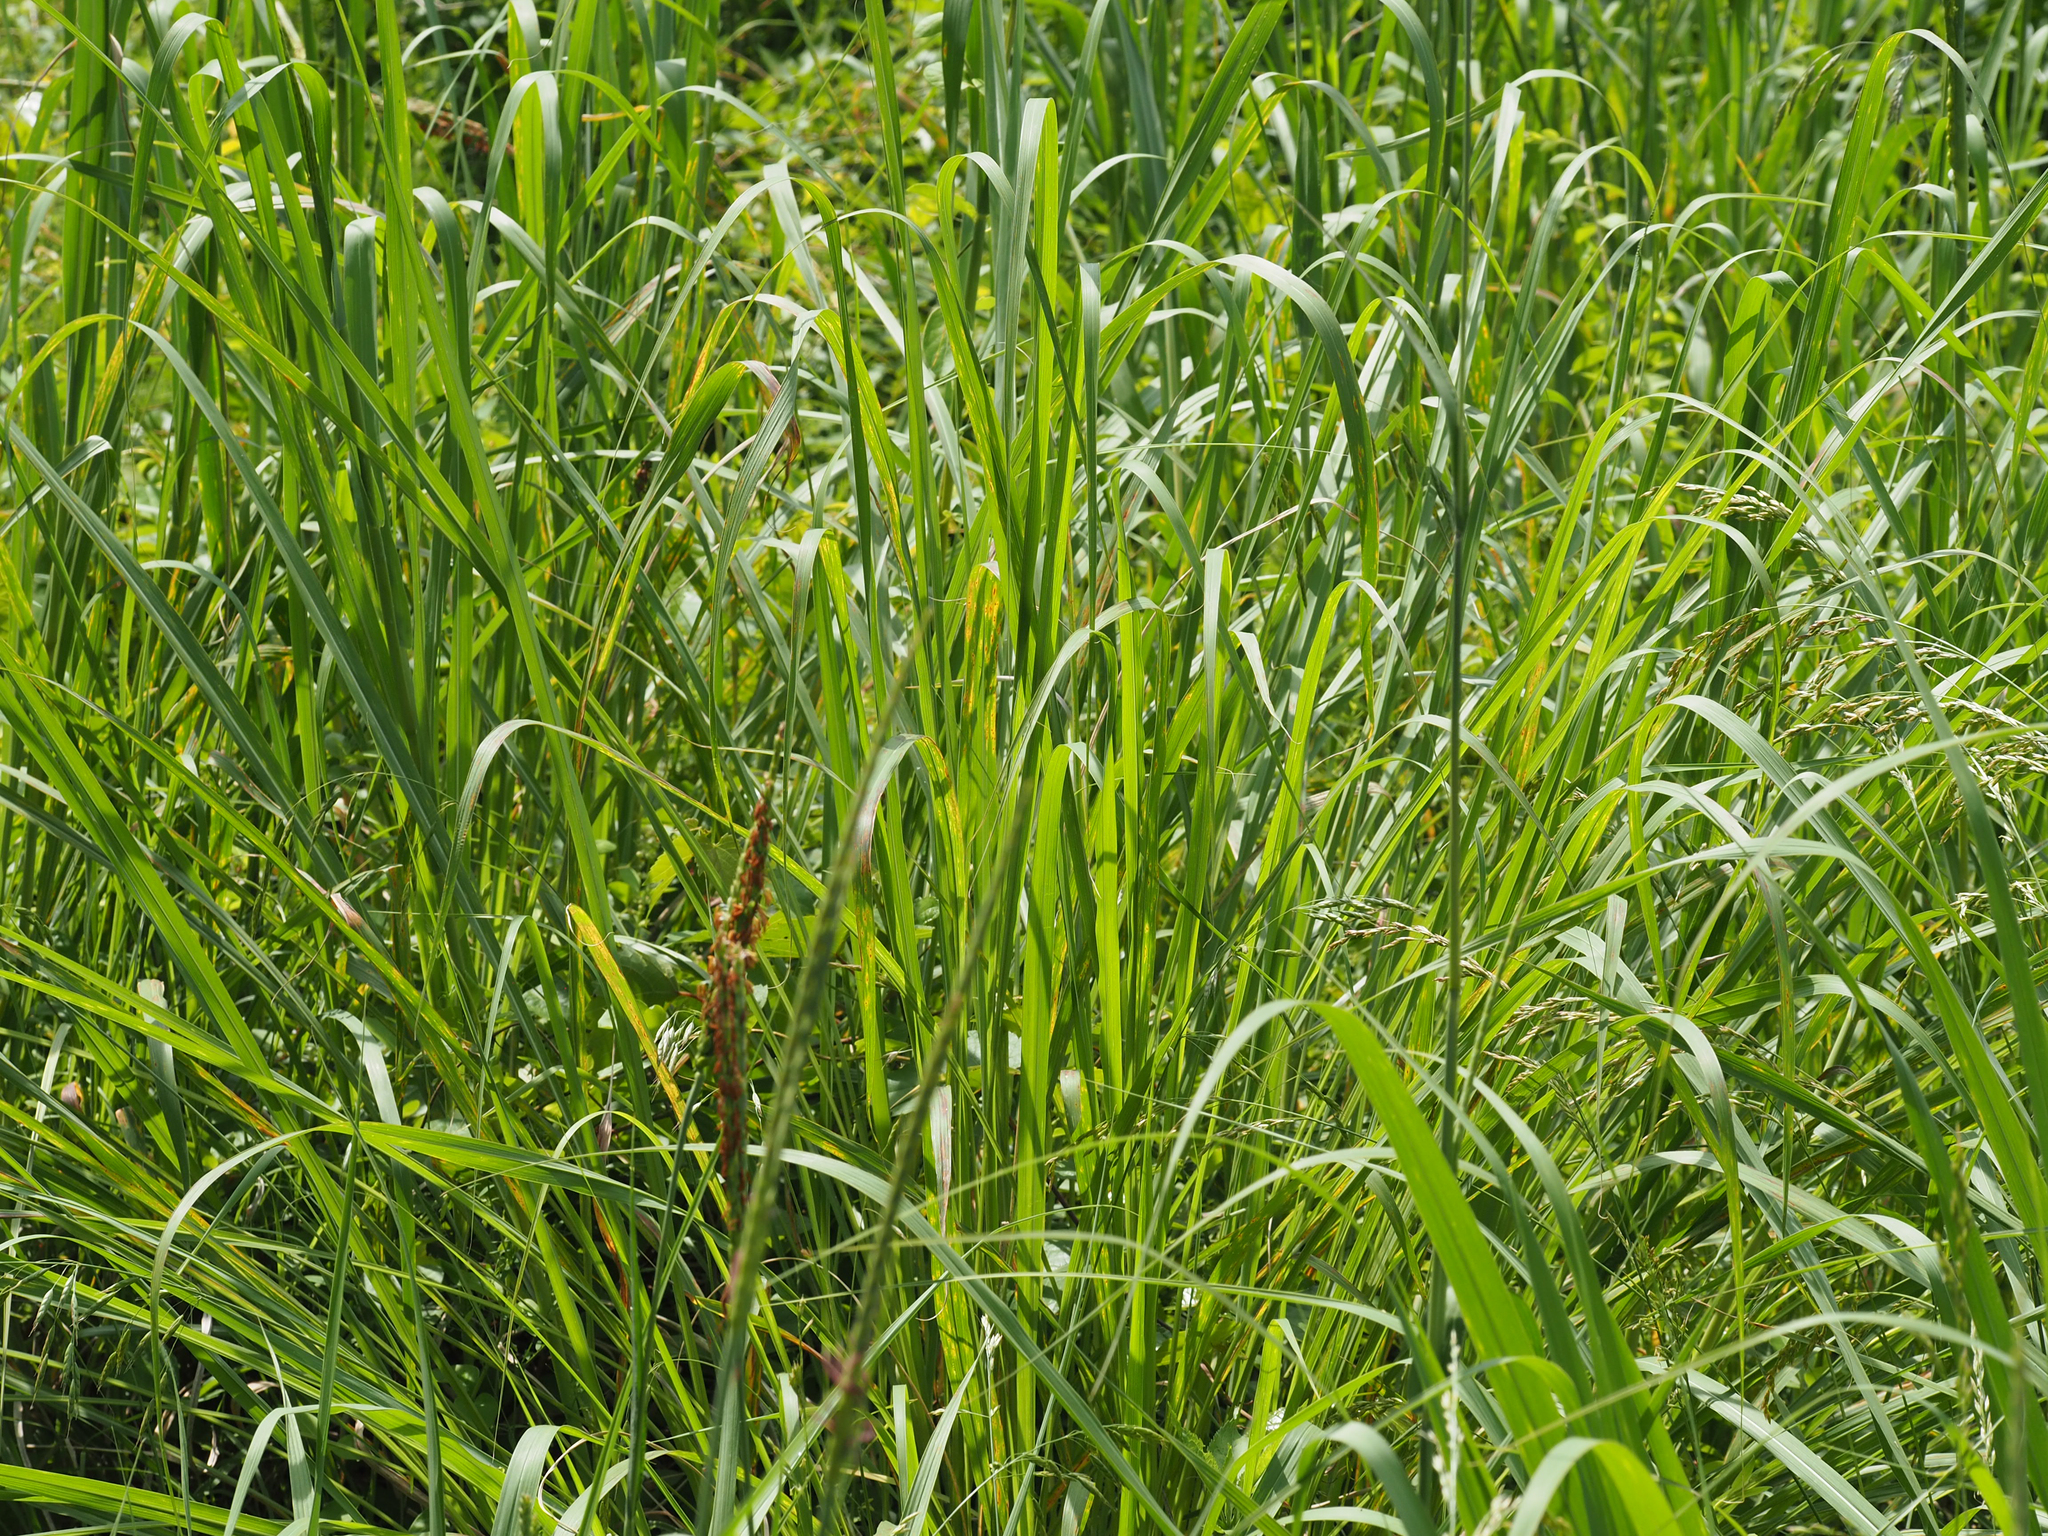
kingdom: Plantae
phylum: Tracheophyta
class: Liliopsida
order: Poales
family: Poaceae
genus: Tripsacum
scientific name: Tripsacum dactyloides
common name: Buffalo-grass
